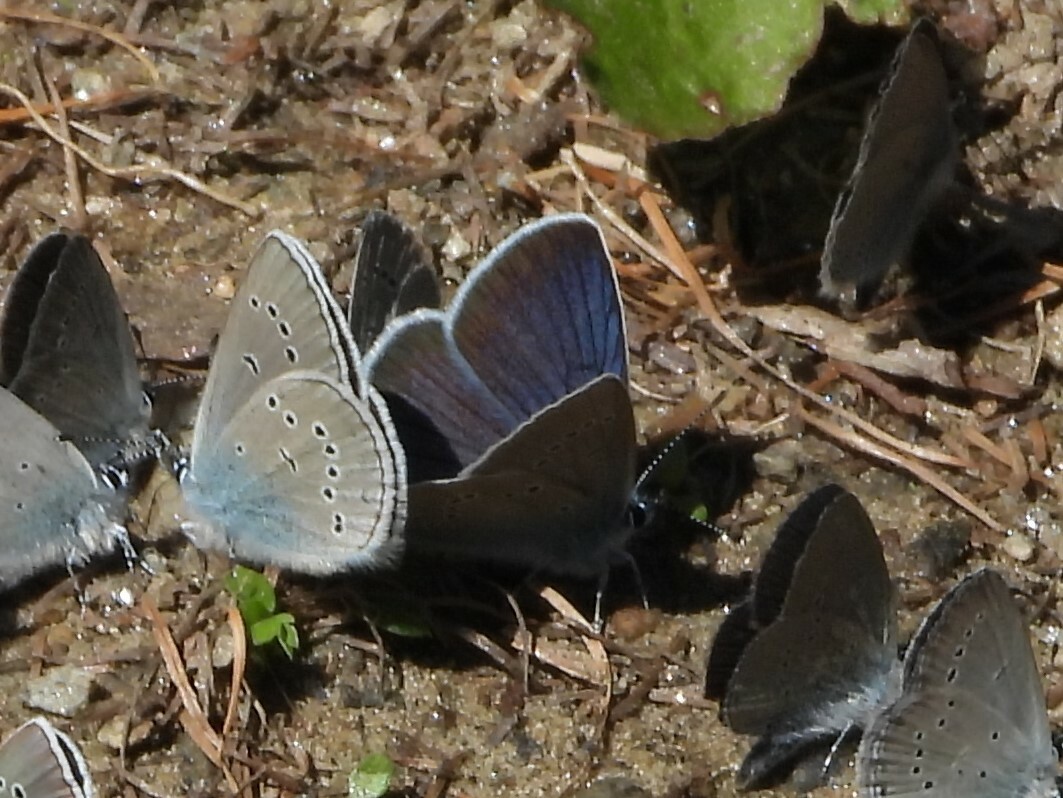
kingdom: Animalia
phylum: Arthropoda
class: Insecta
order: Lepidoptera
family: Lycaenidae
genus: Cyaniris
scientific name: Cyaniris semiargus
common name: Mazarine blue
